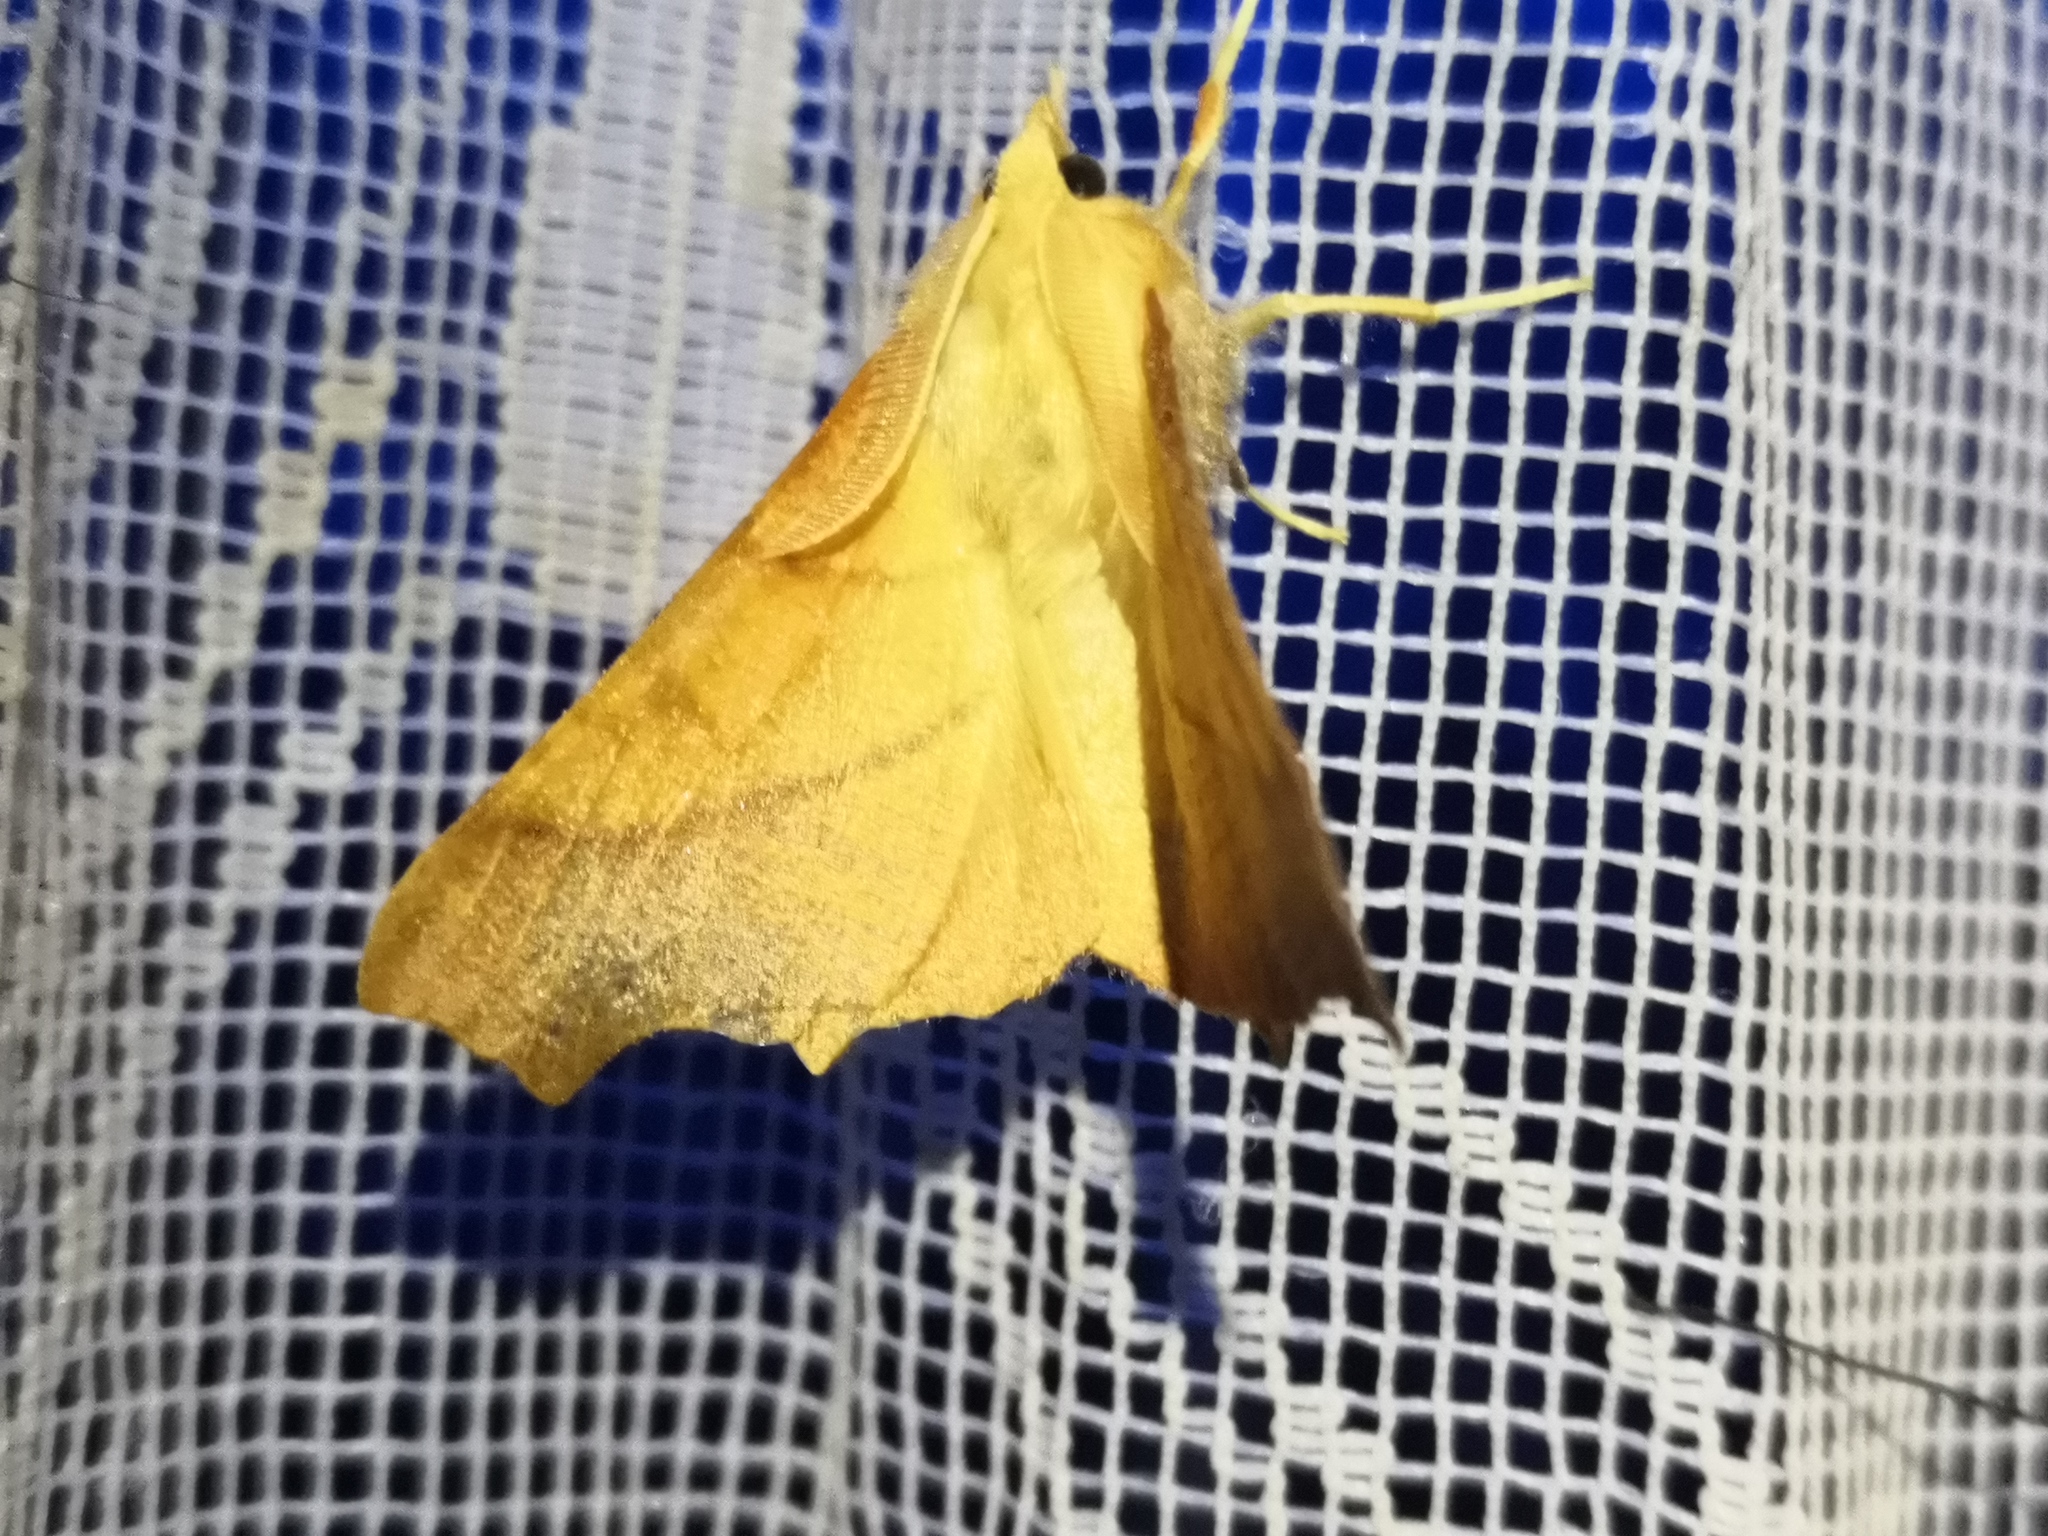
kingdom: Animalia
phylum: Arthropoda
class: Insecta
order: Lepidoptera
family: Geometridae
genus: Ennomos
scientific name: Ennomos fuscantaria
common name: Dusky thorn
